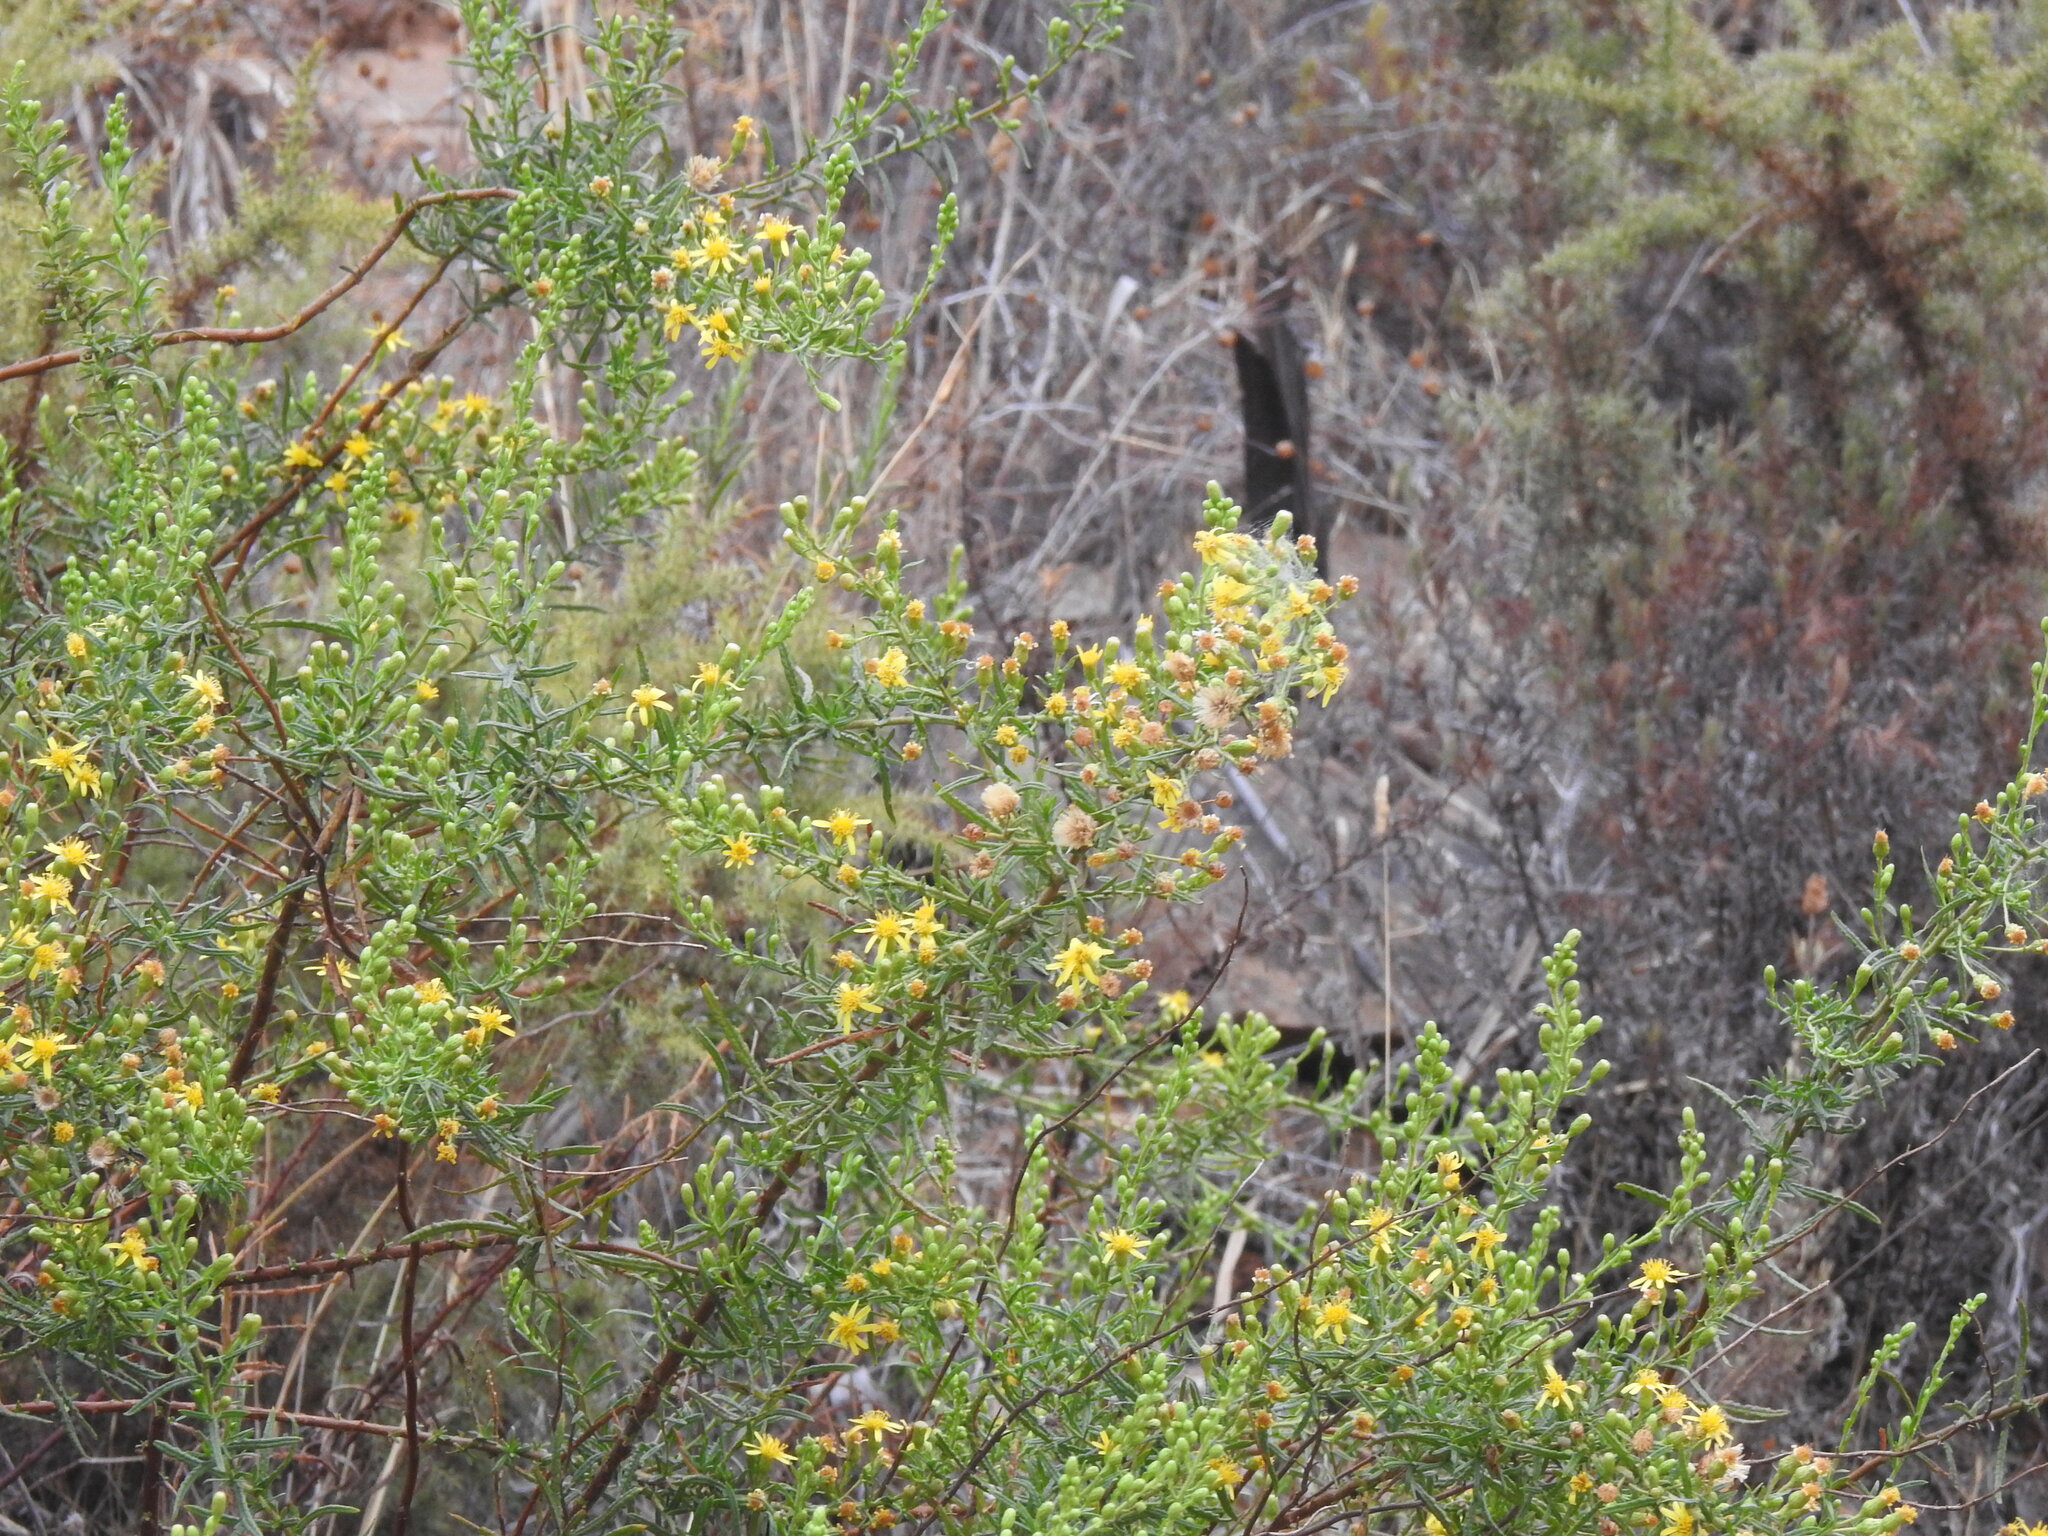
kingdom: Plantae
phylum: Tracheophyta
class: Magnoliopsida
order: Asterales
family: Asteraceae
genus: Dittrichia
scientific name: Dittrichia viscosa
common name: Woody fleabane
